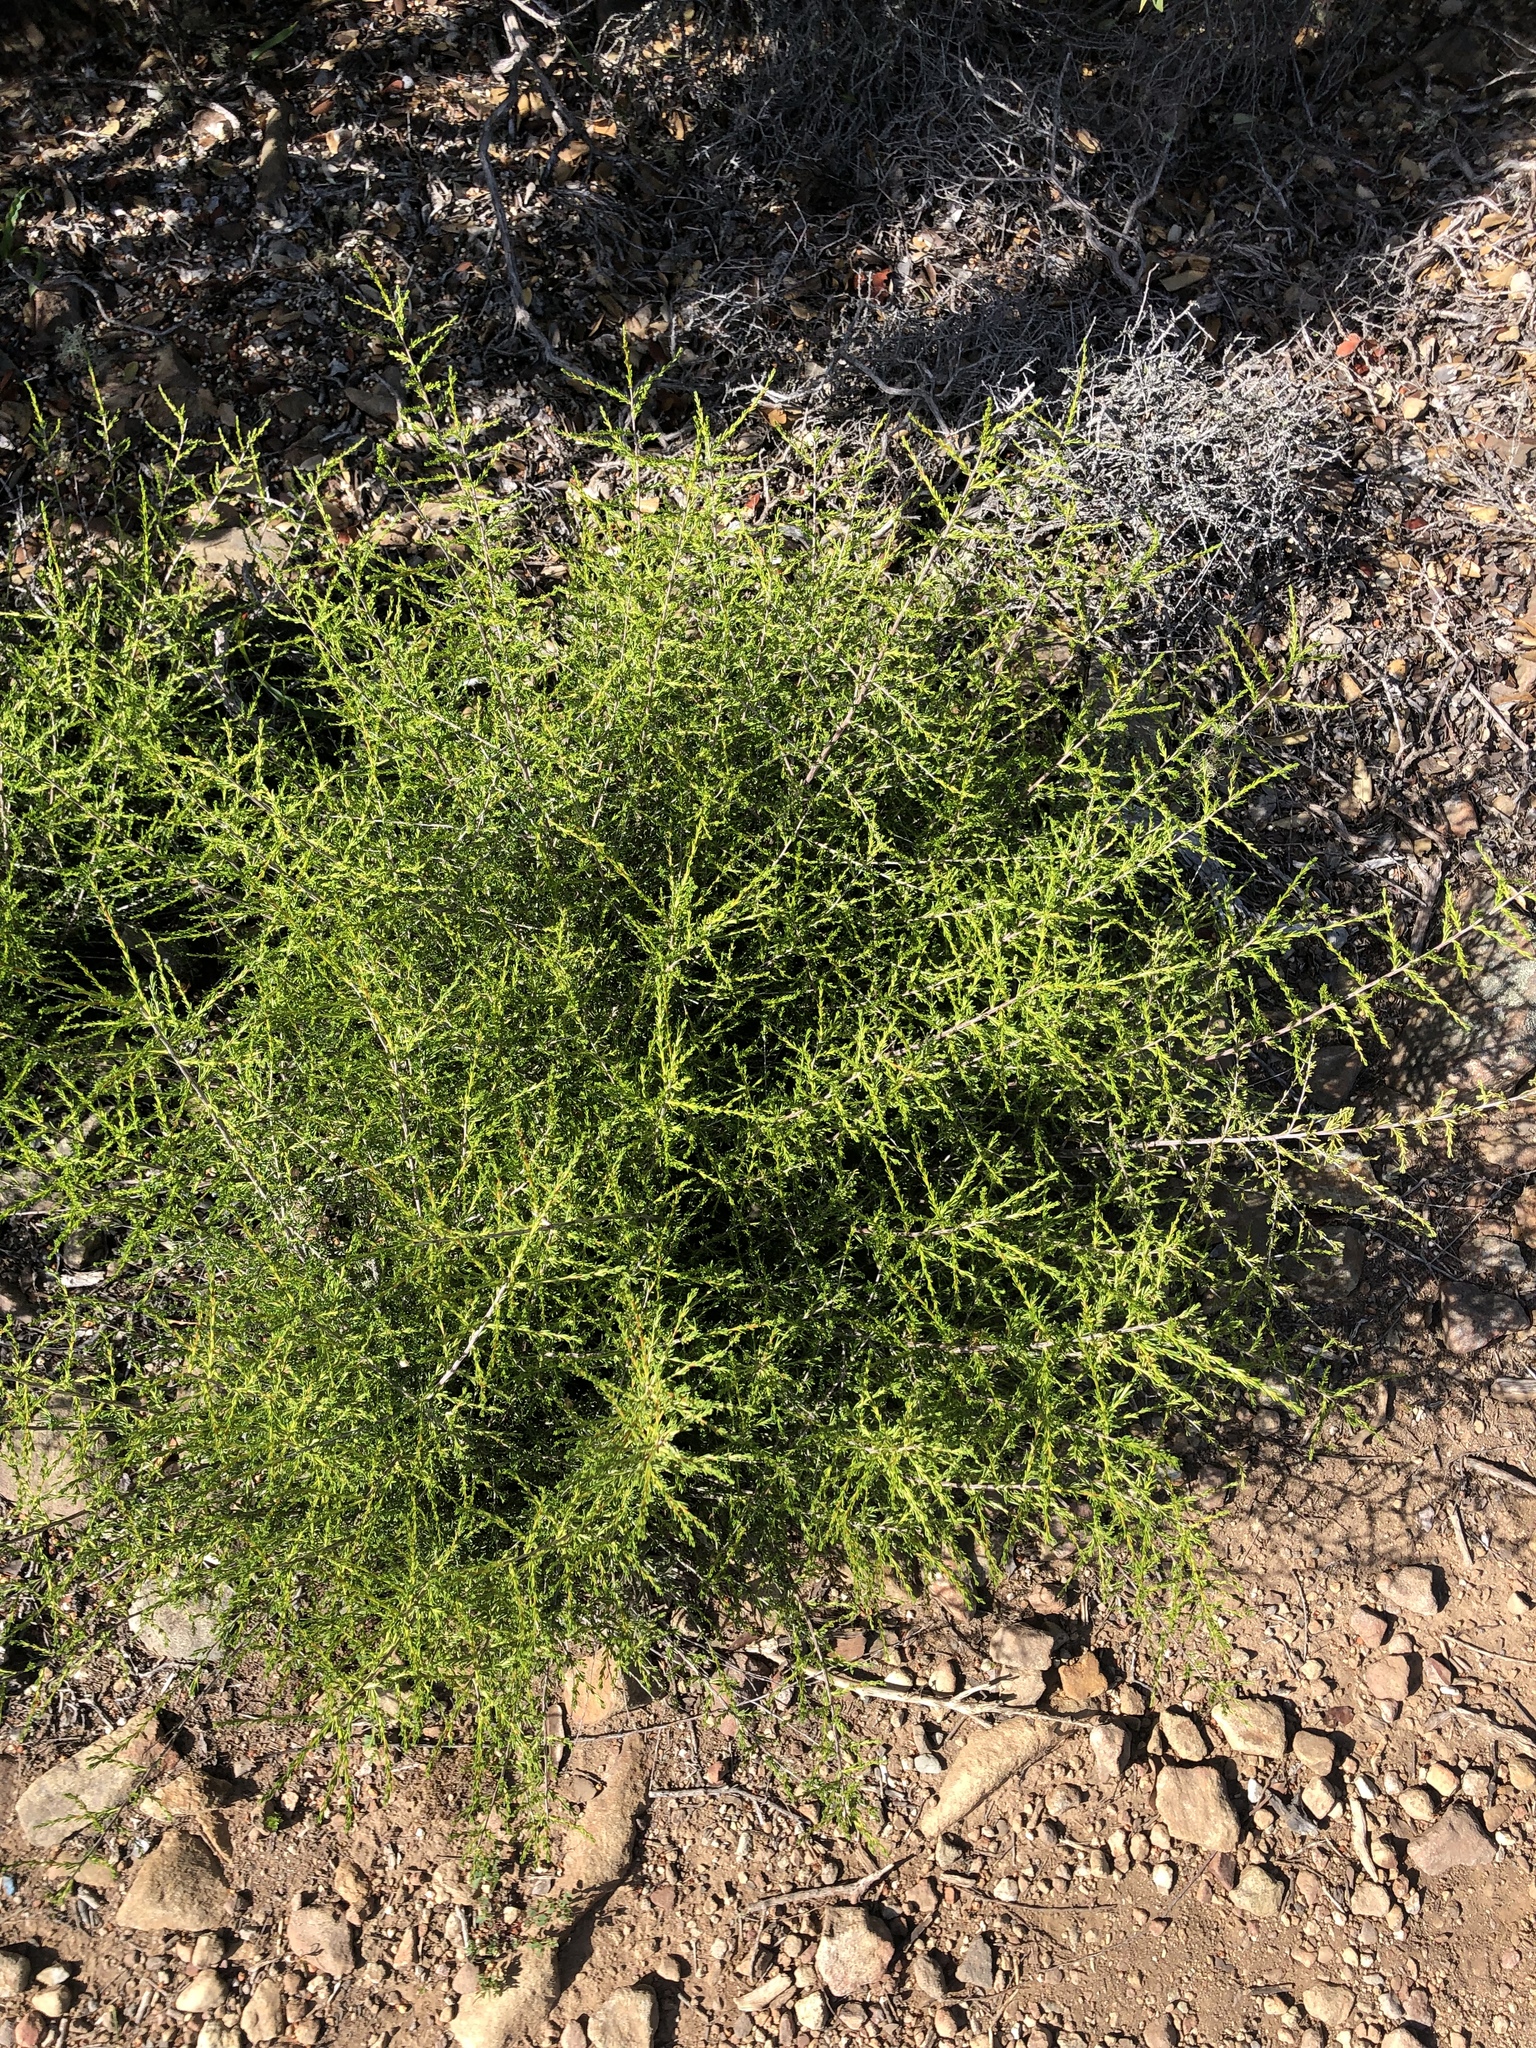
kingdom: Plantae
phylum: Tracheophyta
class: Magnoliopsida
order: Rosales
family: Rosaceae
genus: Adenostoma
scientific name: Adenostoma fasciculatum
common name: Chamise
